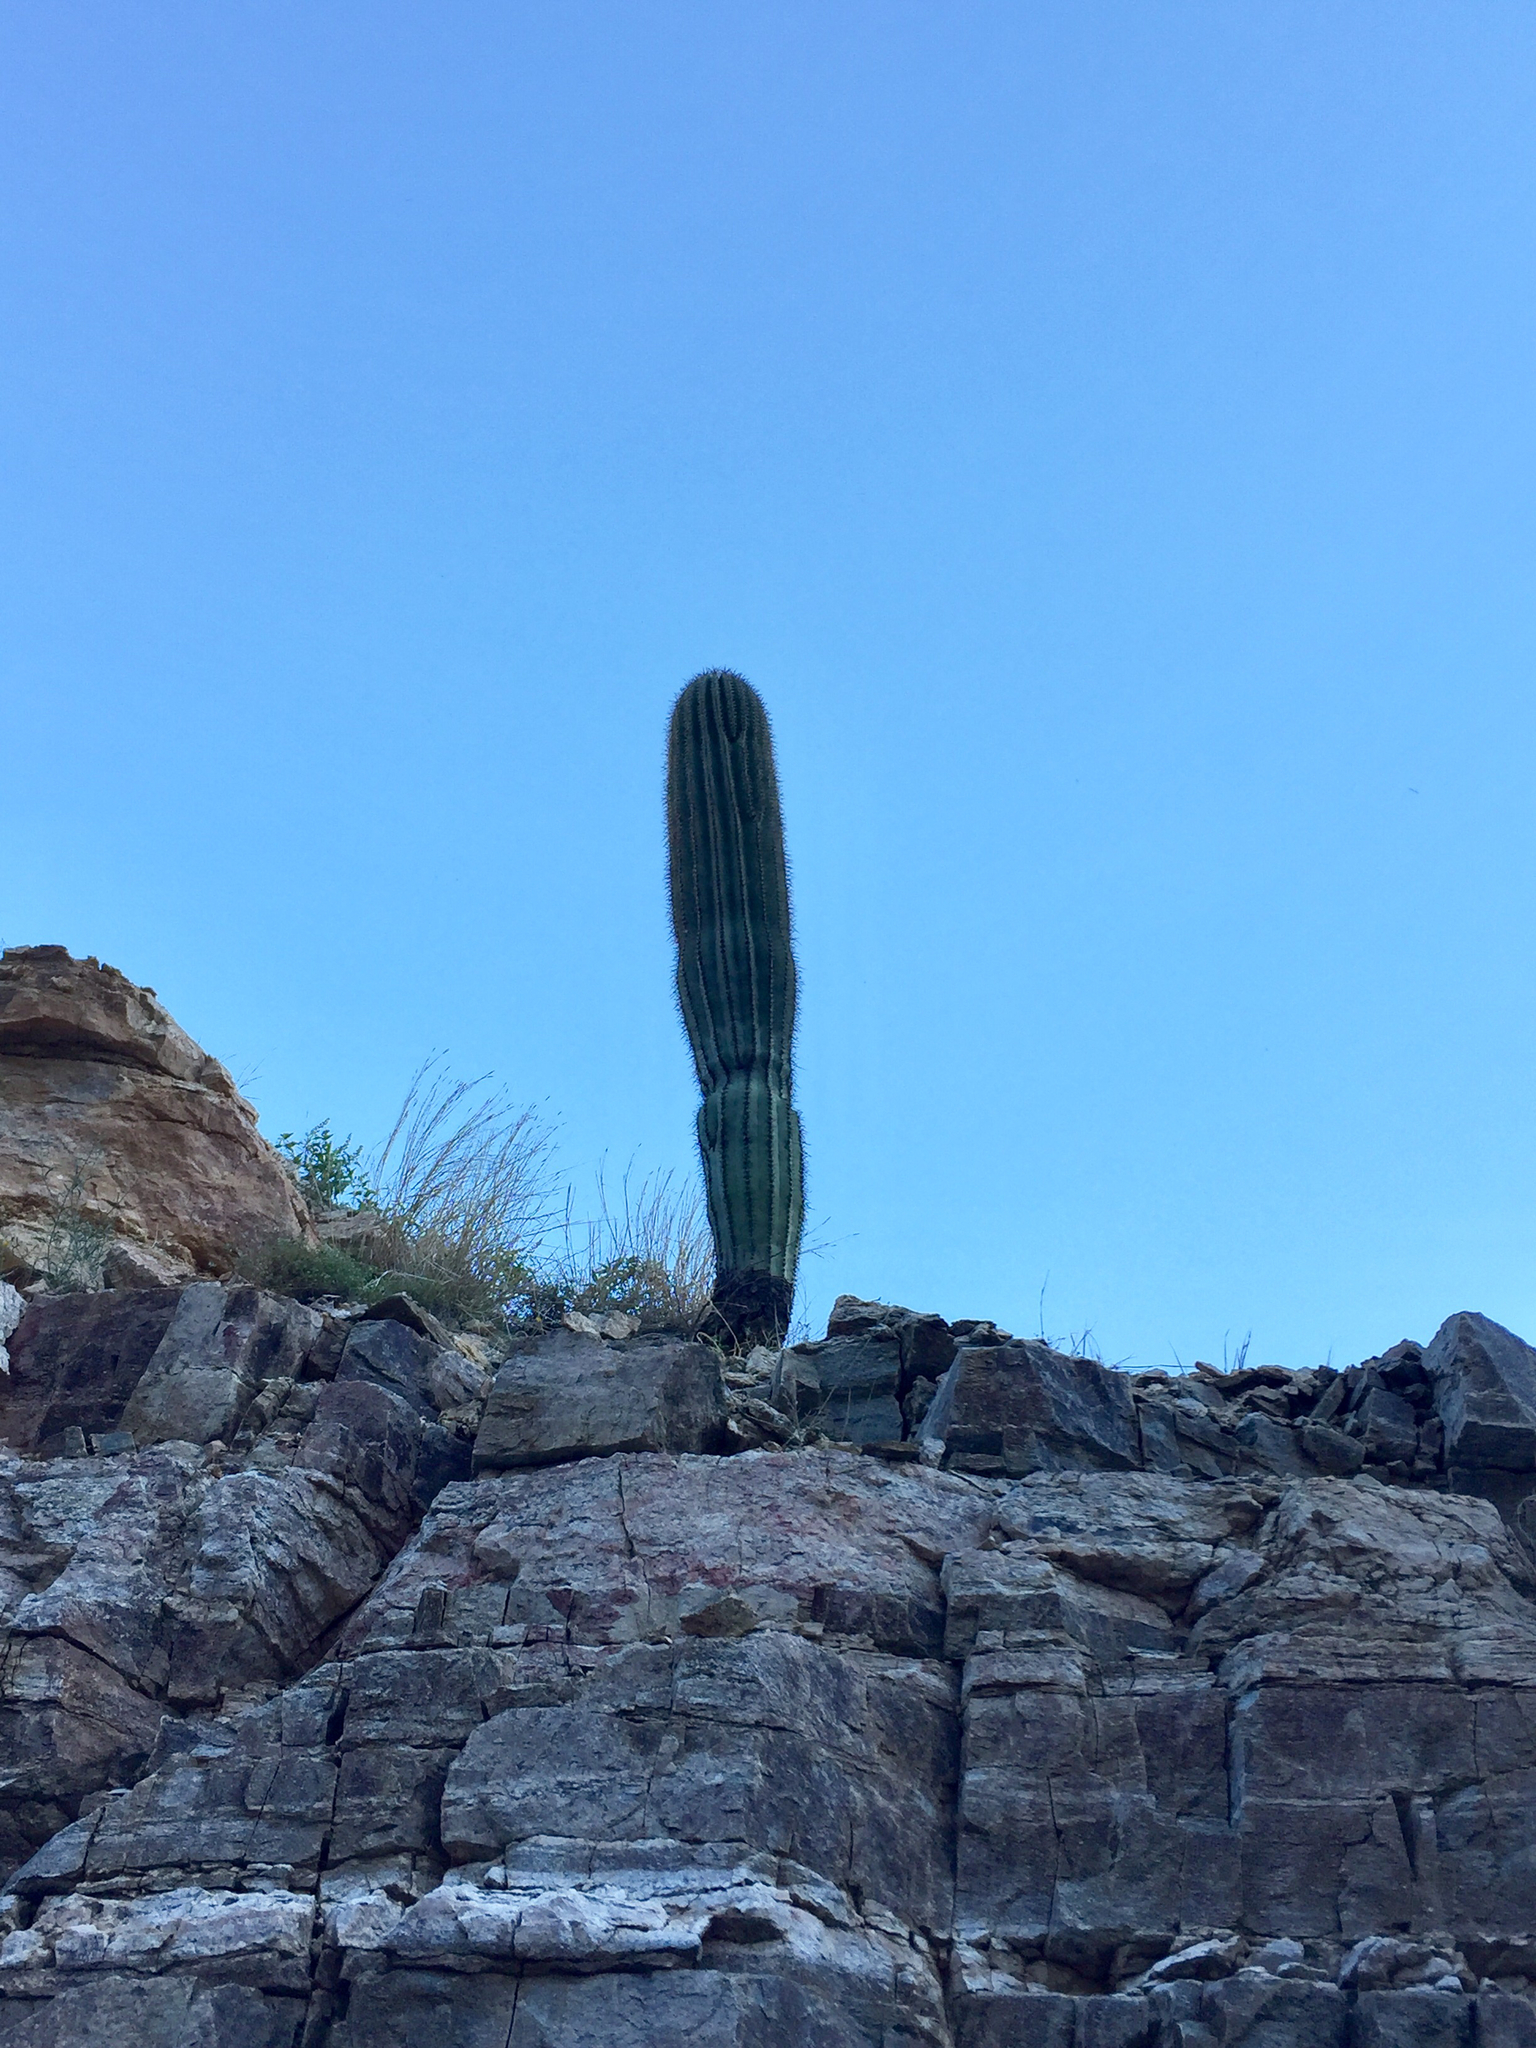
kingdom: Plantae
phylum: Tracheophyta
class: Magnoliopsida
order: Caryophyllales
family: Cactaceae
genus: Carnegiea
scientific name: Carnegiea gigantea
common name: Saguaro
